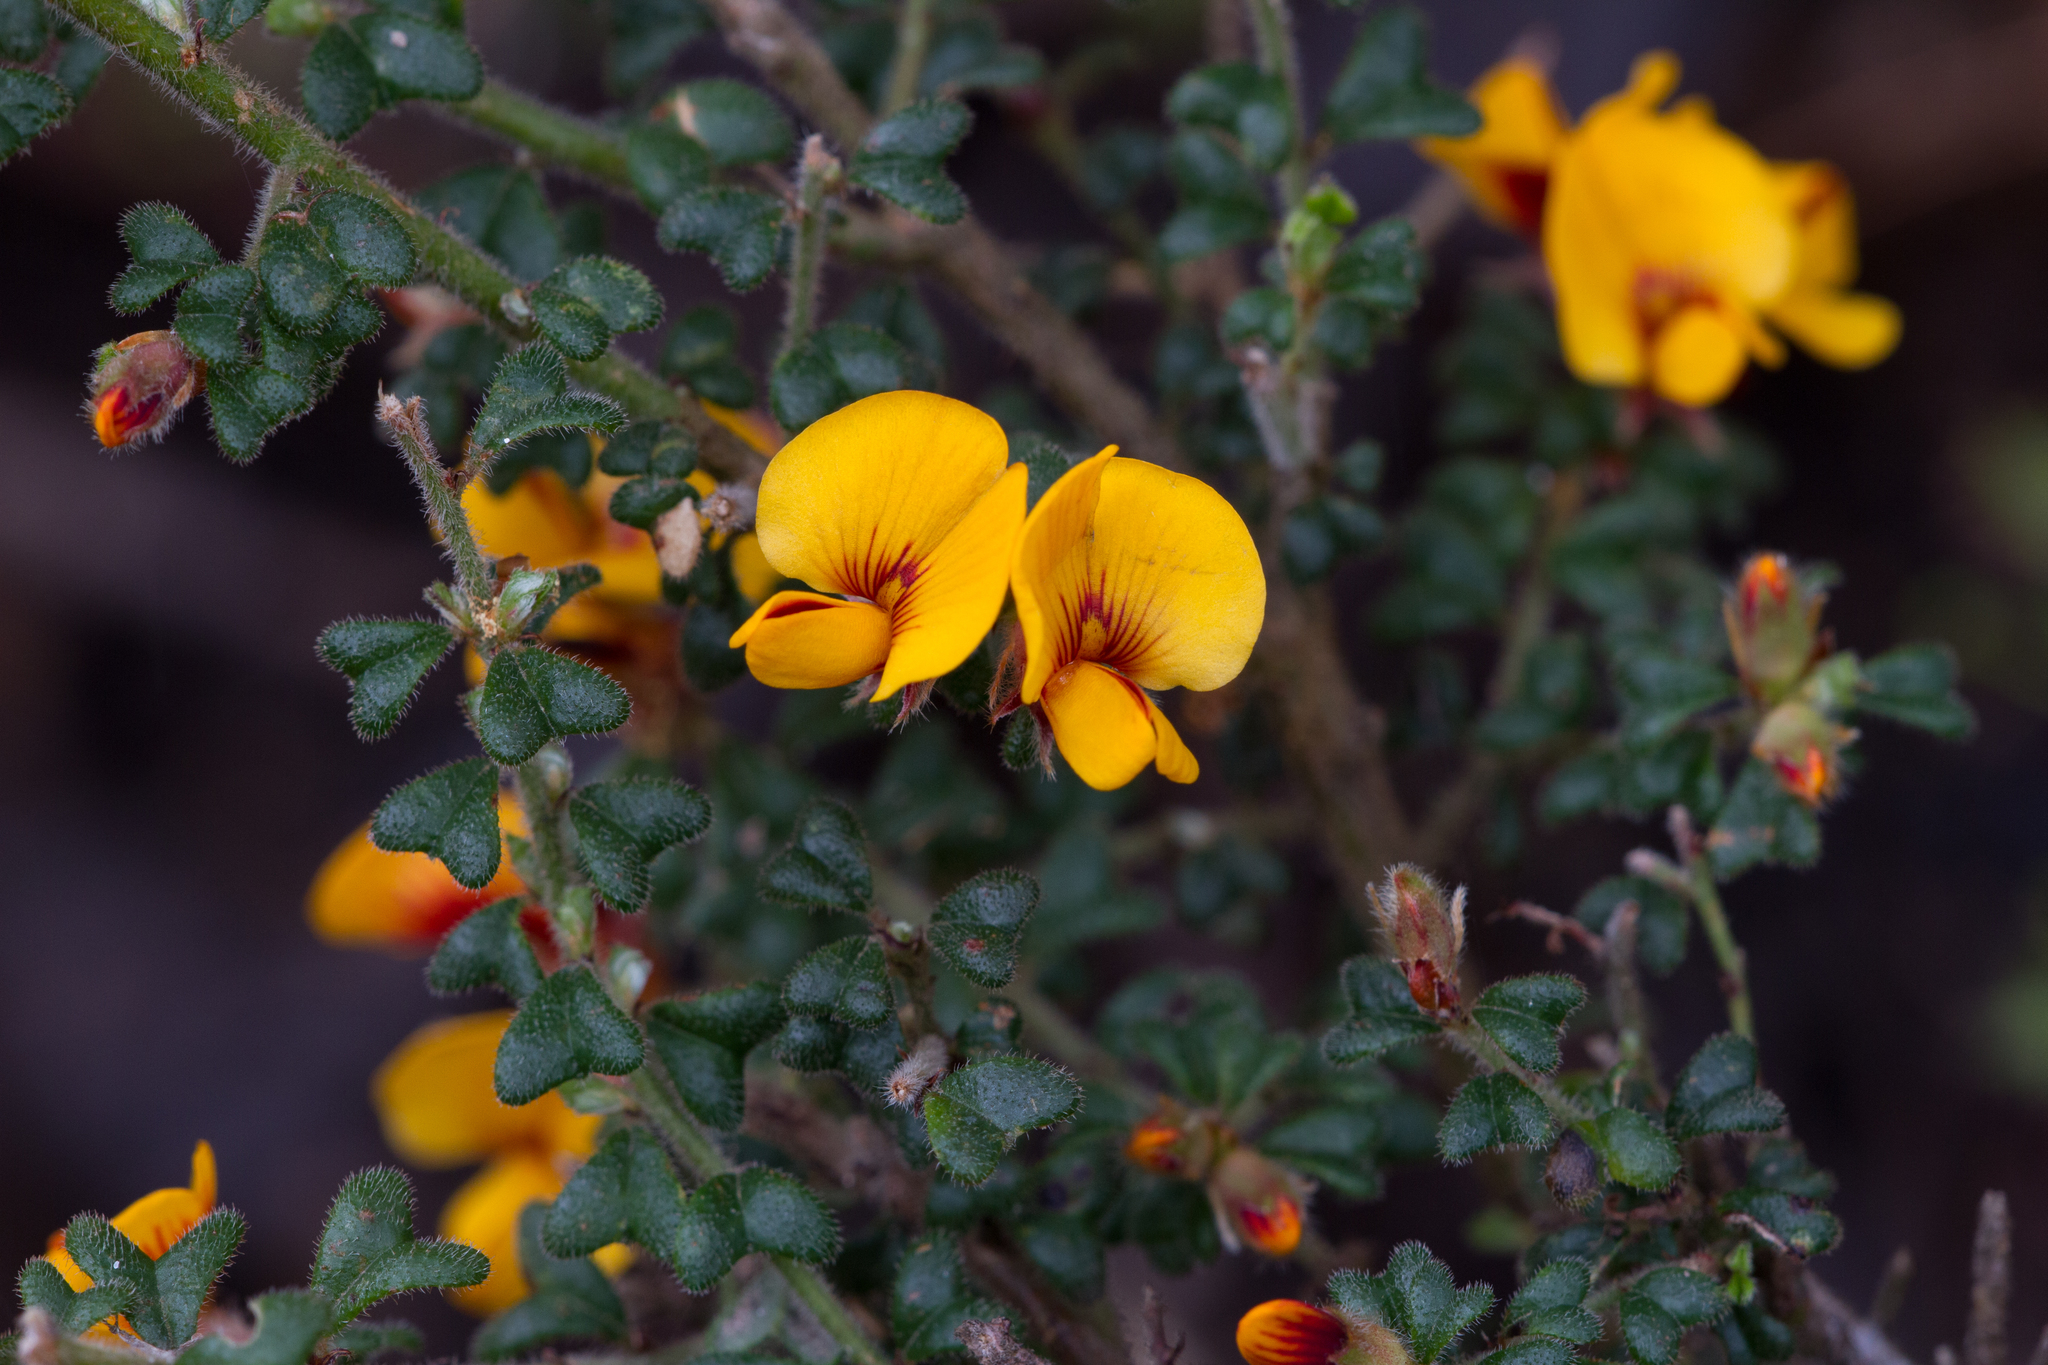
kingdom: Plantae
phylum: Tracheophyta
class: Magnoliopsida
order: Fabales
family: Fabaceae
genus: Pultenaea
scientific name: Pultenaea scabra
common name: Rough bush-pea
